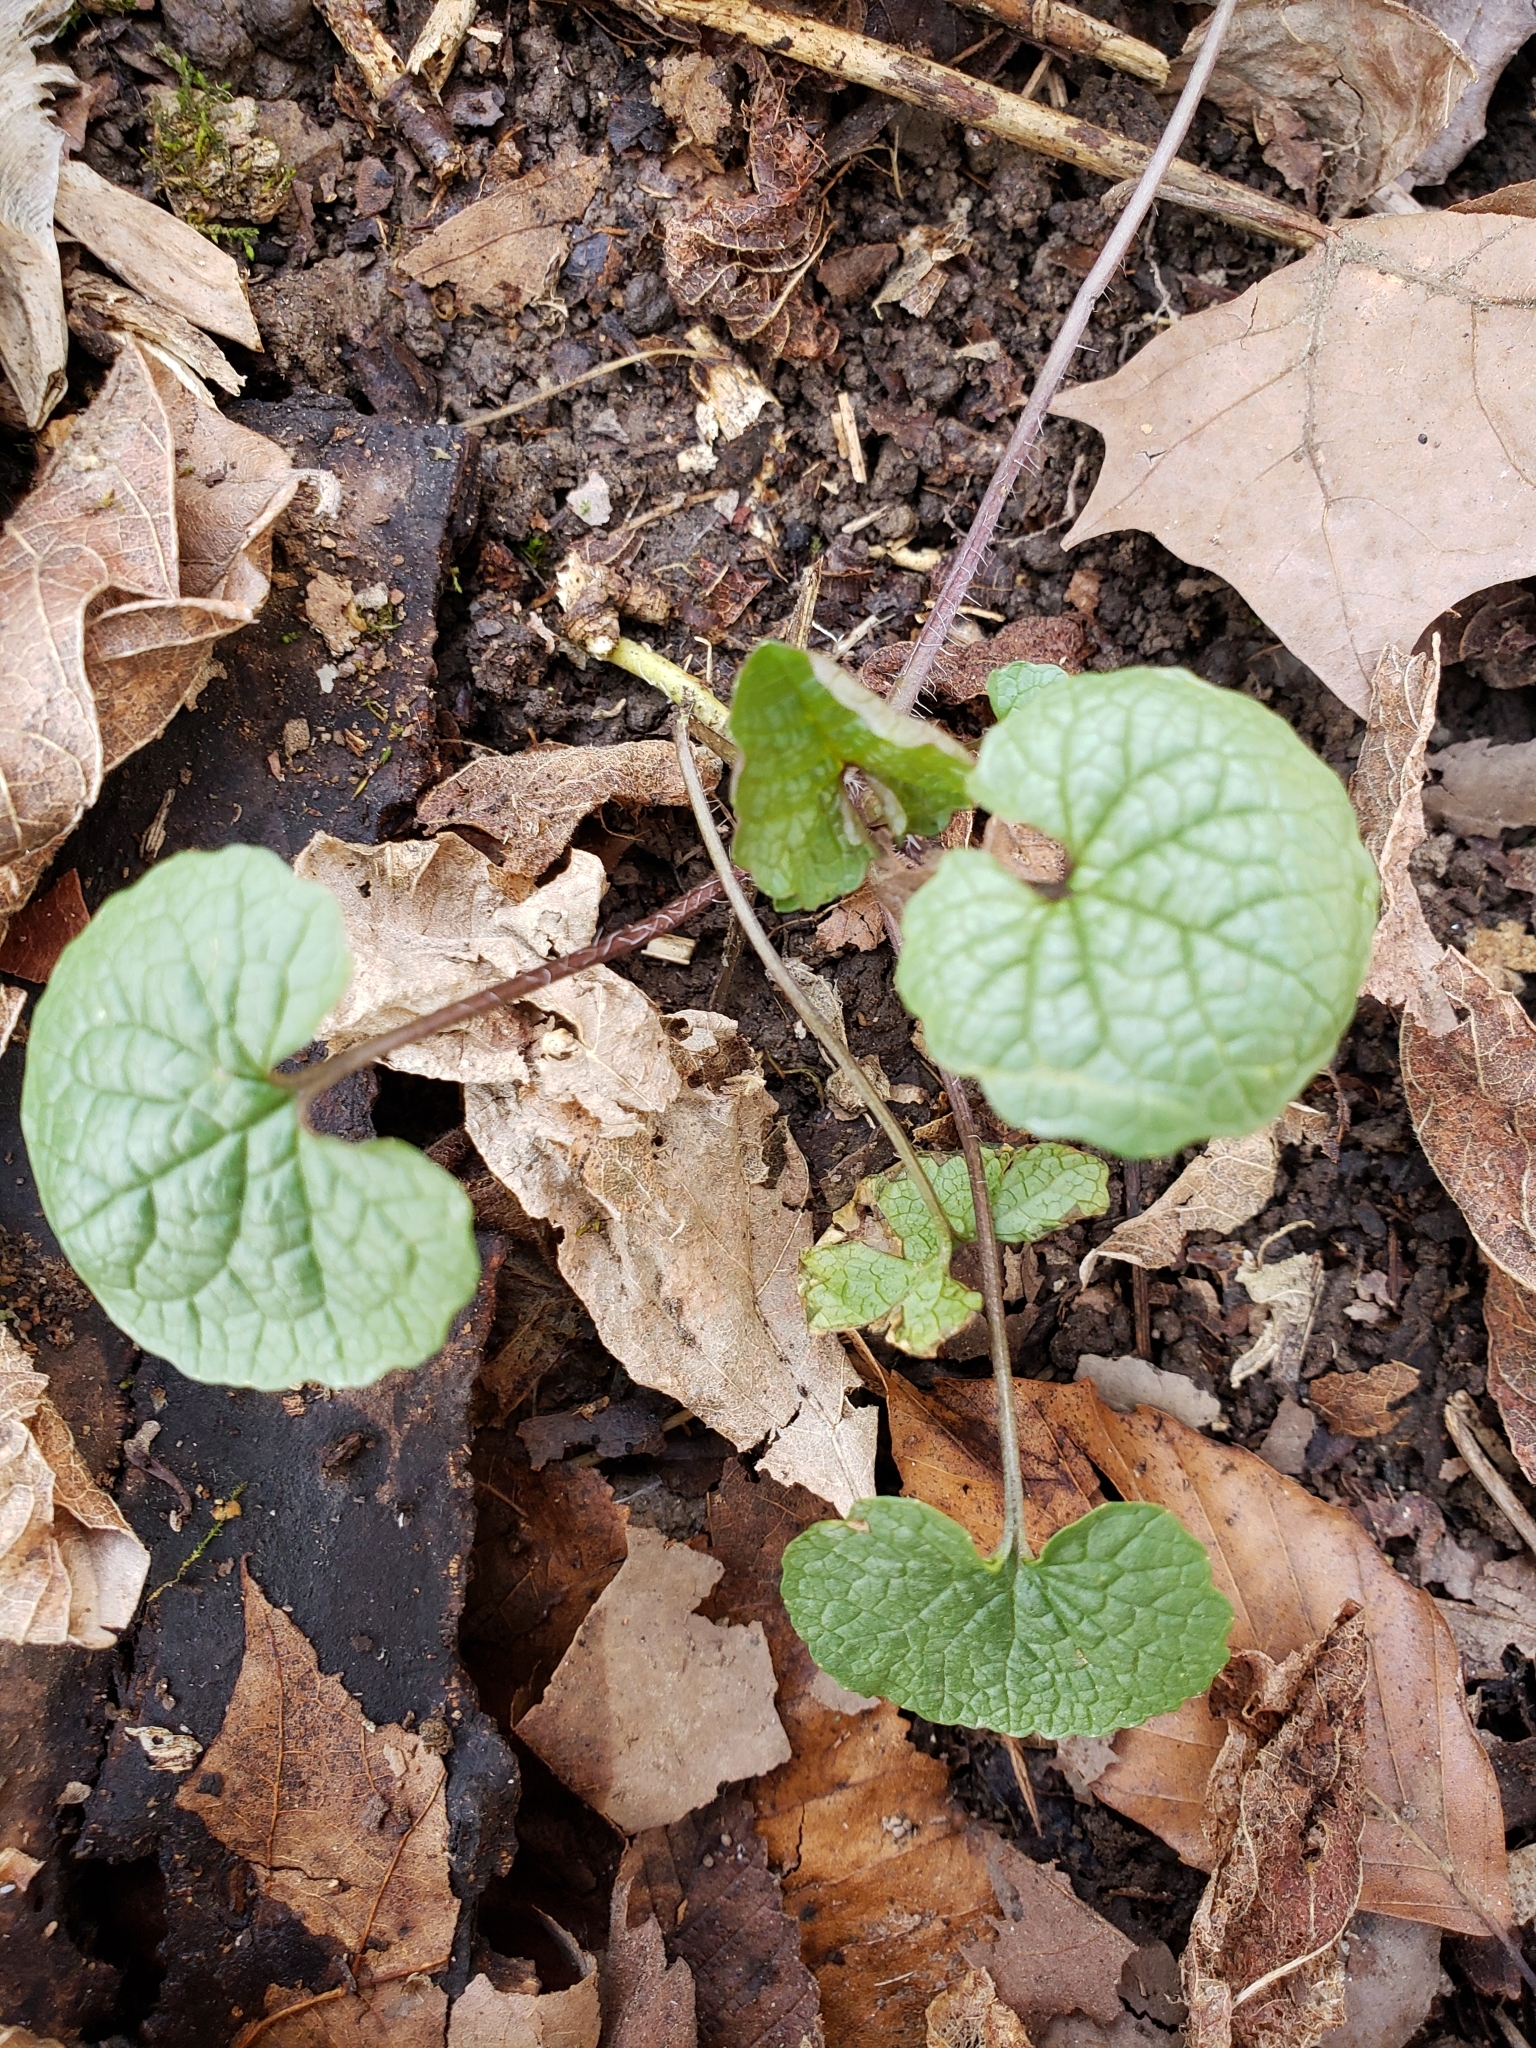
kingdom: Plantae
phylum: Tracheophyta
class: Magnoliopsida
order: Brassicales
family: Brassicaceae
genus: Alliaria
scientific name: Alliaria petiolata
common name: Garlic mustard
